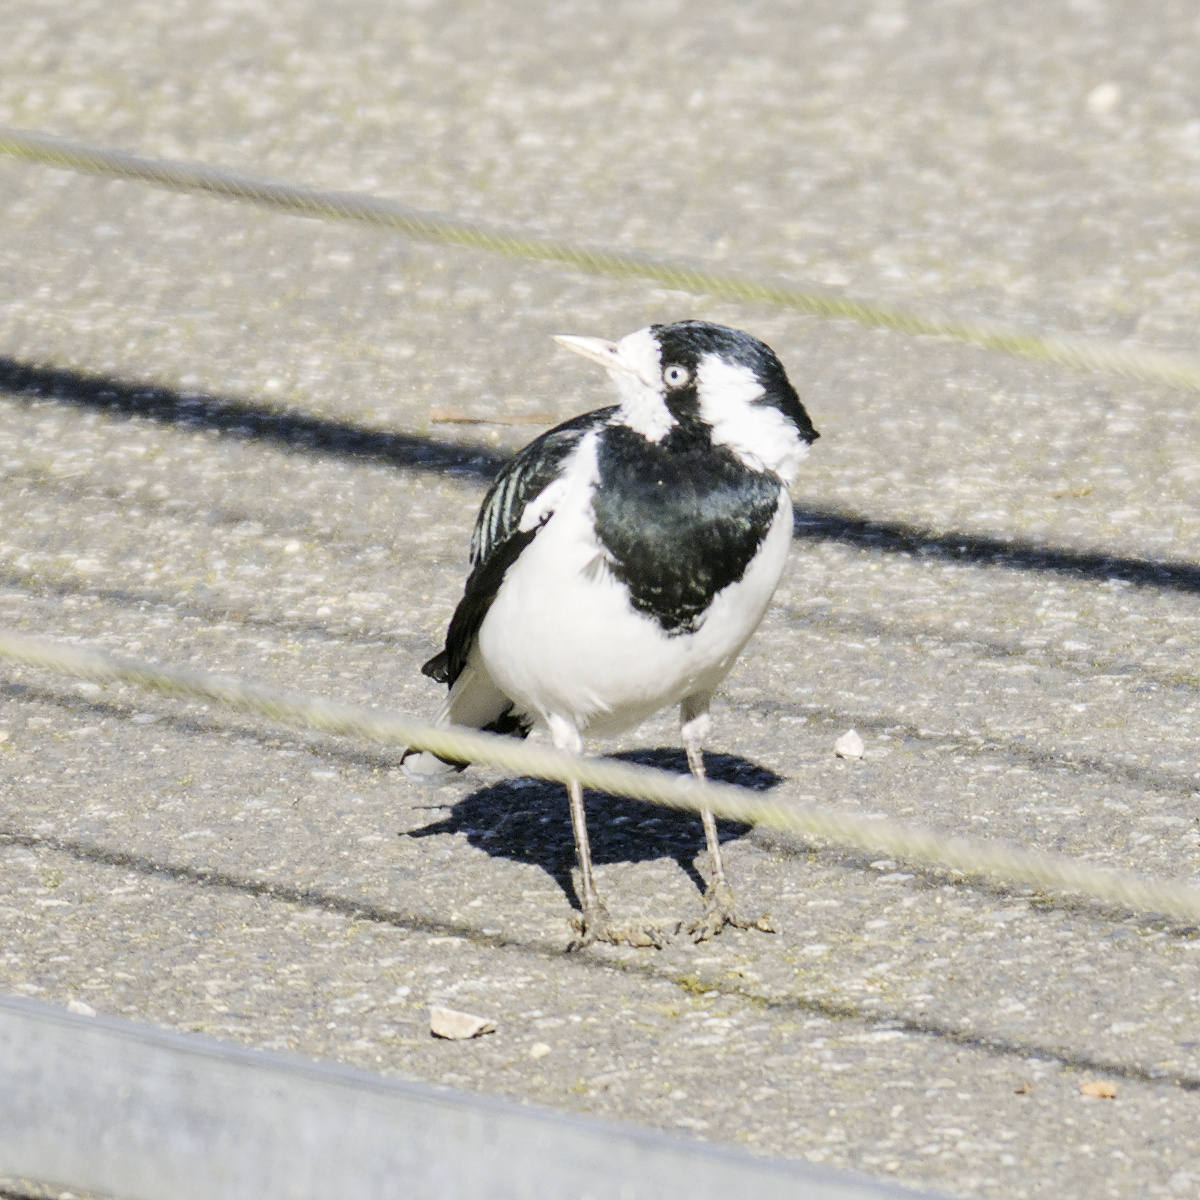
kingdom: Animalia
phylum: Chordata
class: Aves
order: Passeriformes
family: Monarchidae
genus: Grallina
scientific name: Grallina cyanoleuca
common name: Magpie-lark
